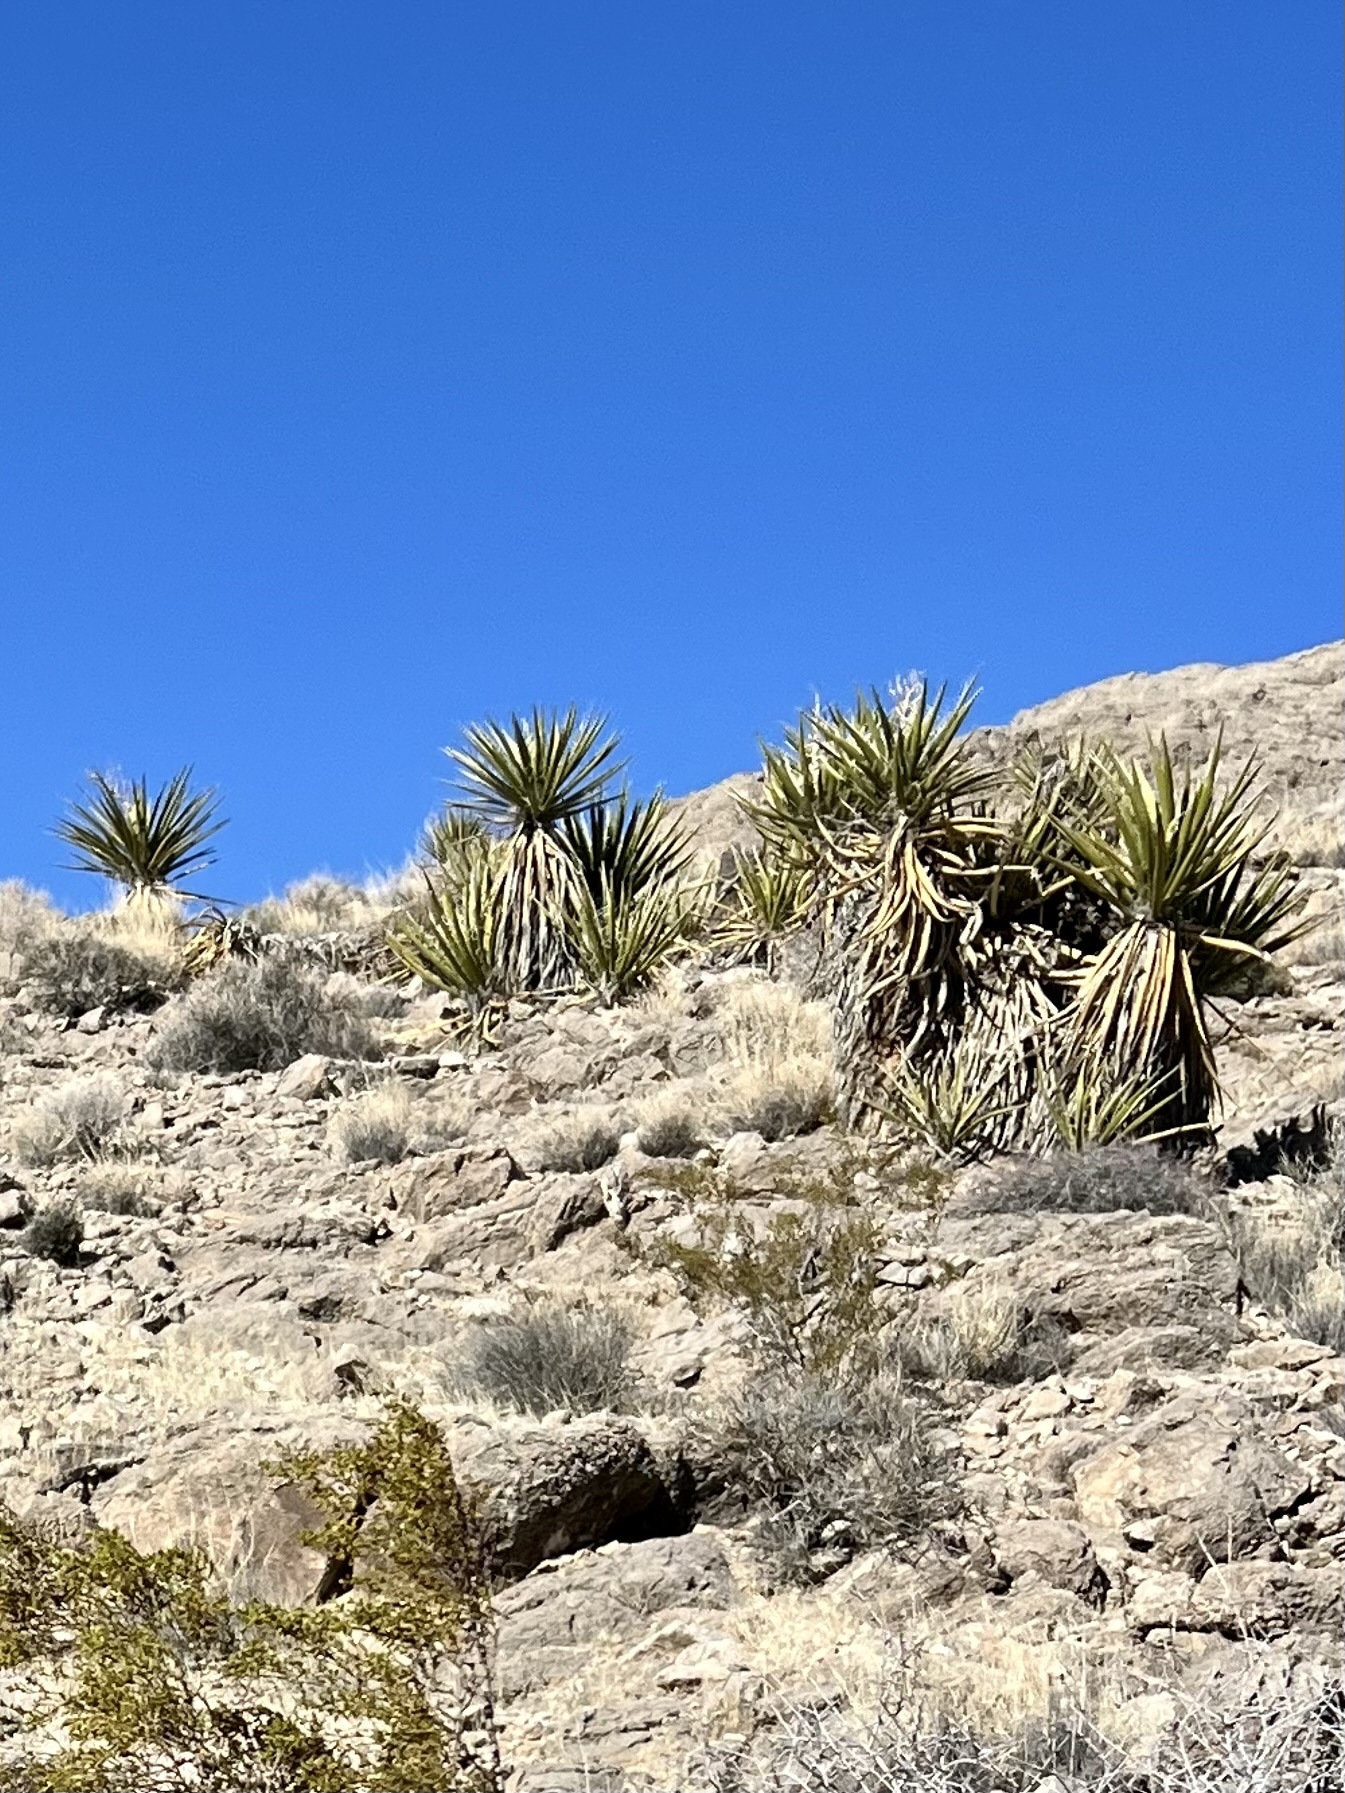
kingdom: Plantae
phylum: Tracheophyta
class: Liliopsida
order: Asparagales
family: Asparagaceae
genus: Yucca
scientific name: Yucca schidigera
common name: Mojave yucca
